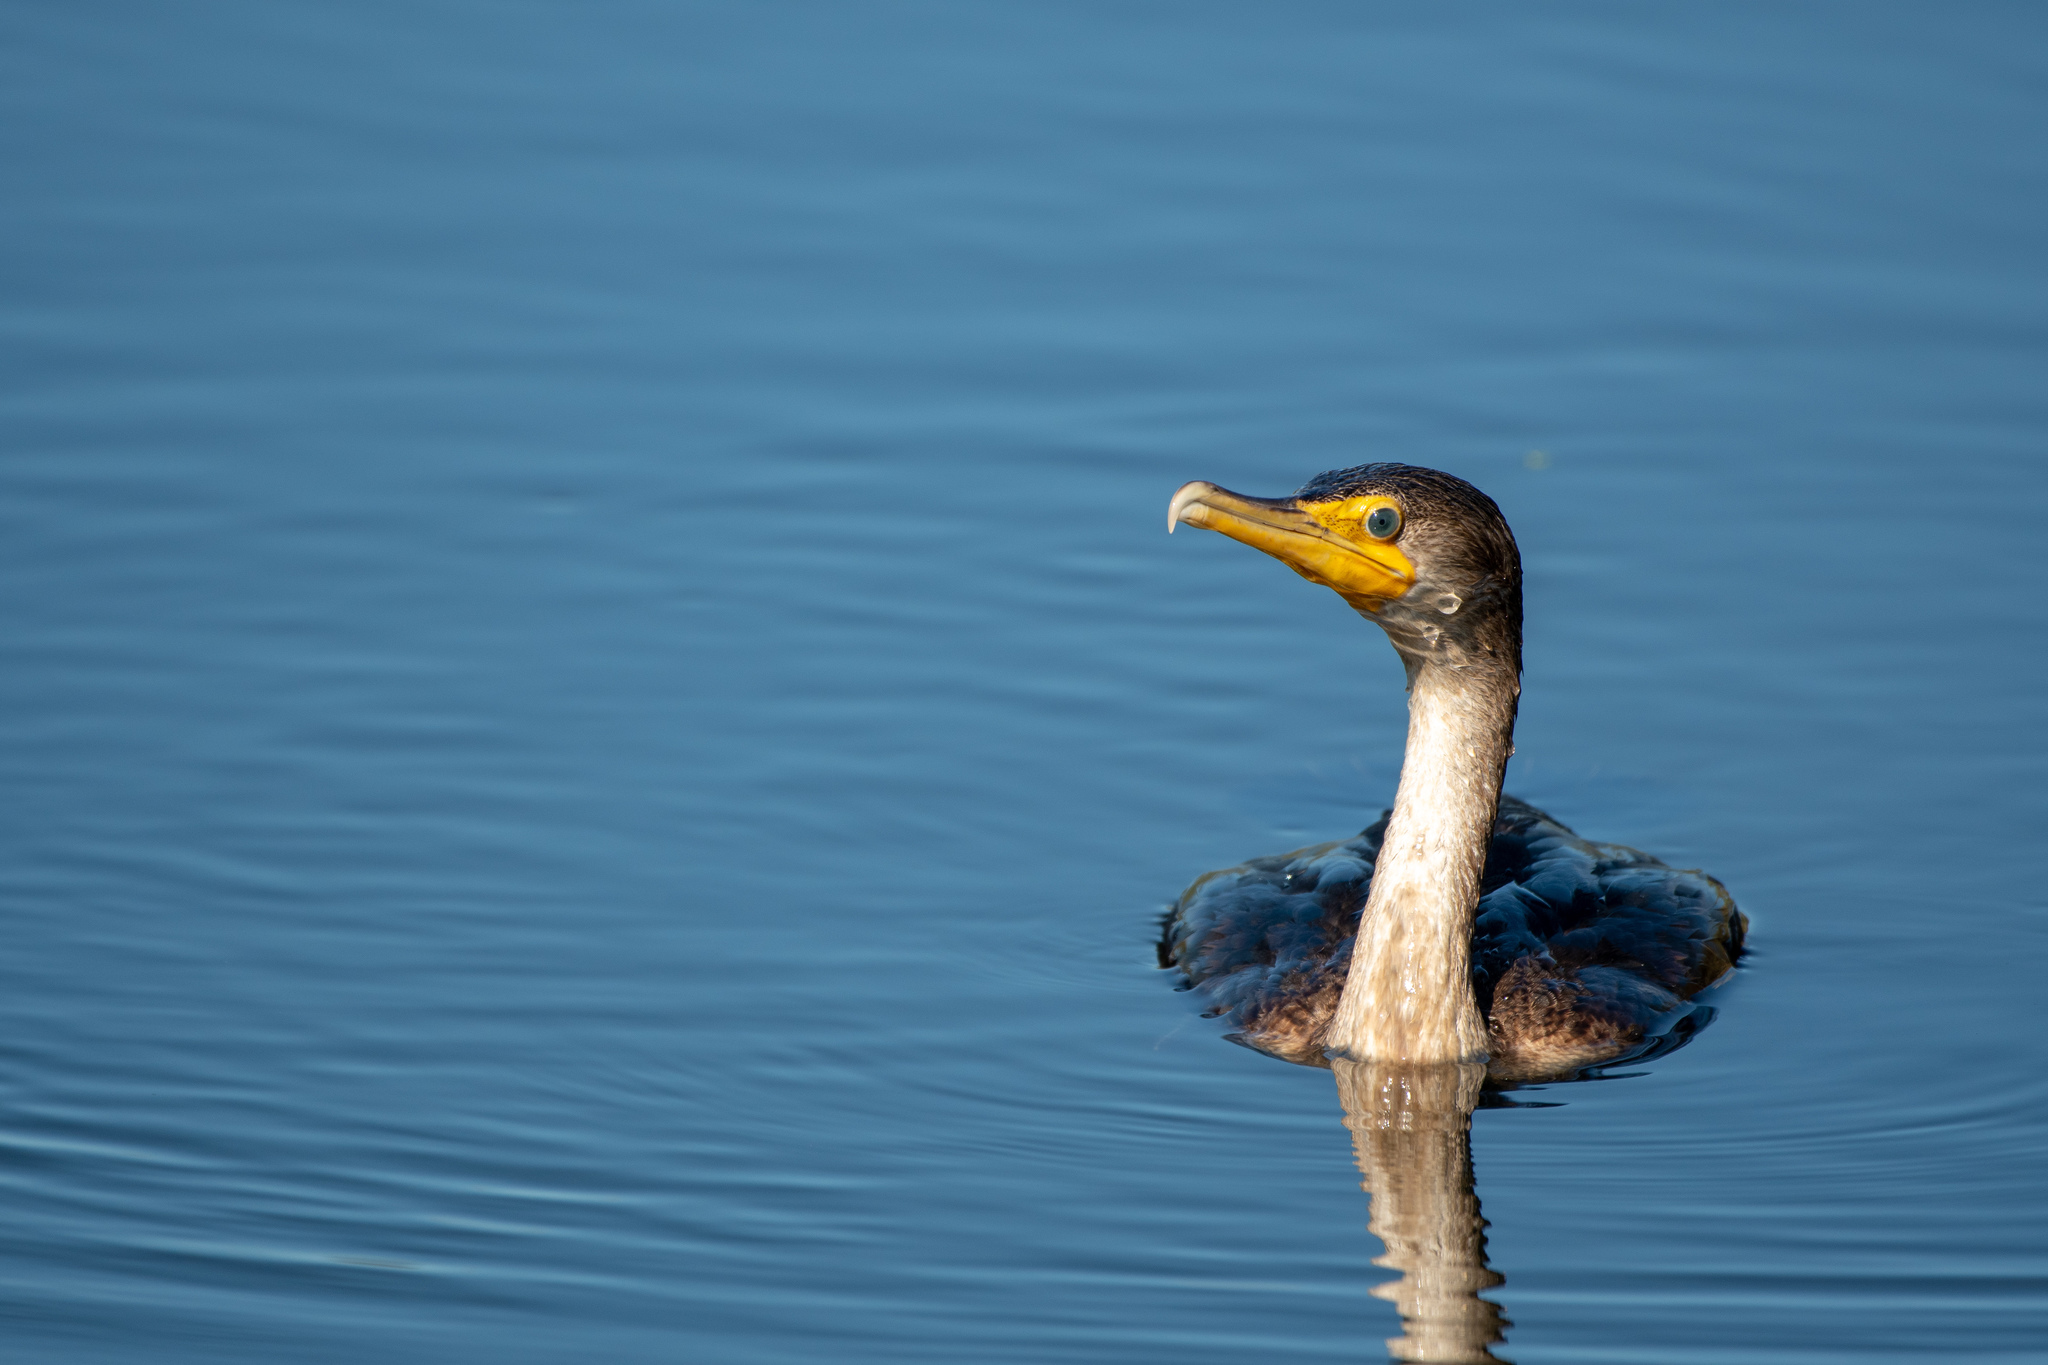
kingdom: Animalia
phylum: Chordata
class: Aves
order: Suliformes
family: Phalacrocoracidae
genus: Phalacrocorax
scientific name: Phalacrocorax auritus
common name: Double-crested cormorant
